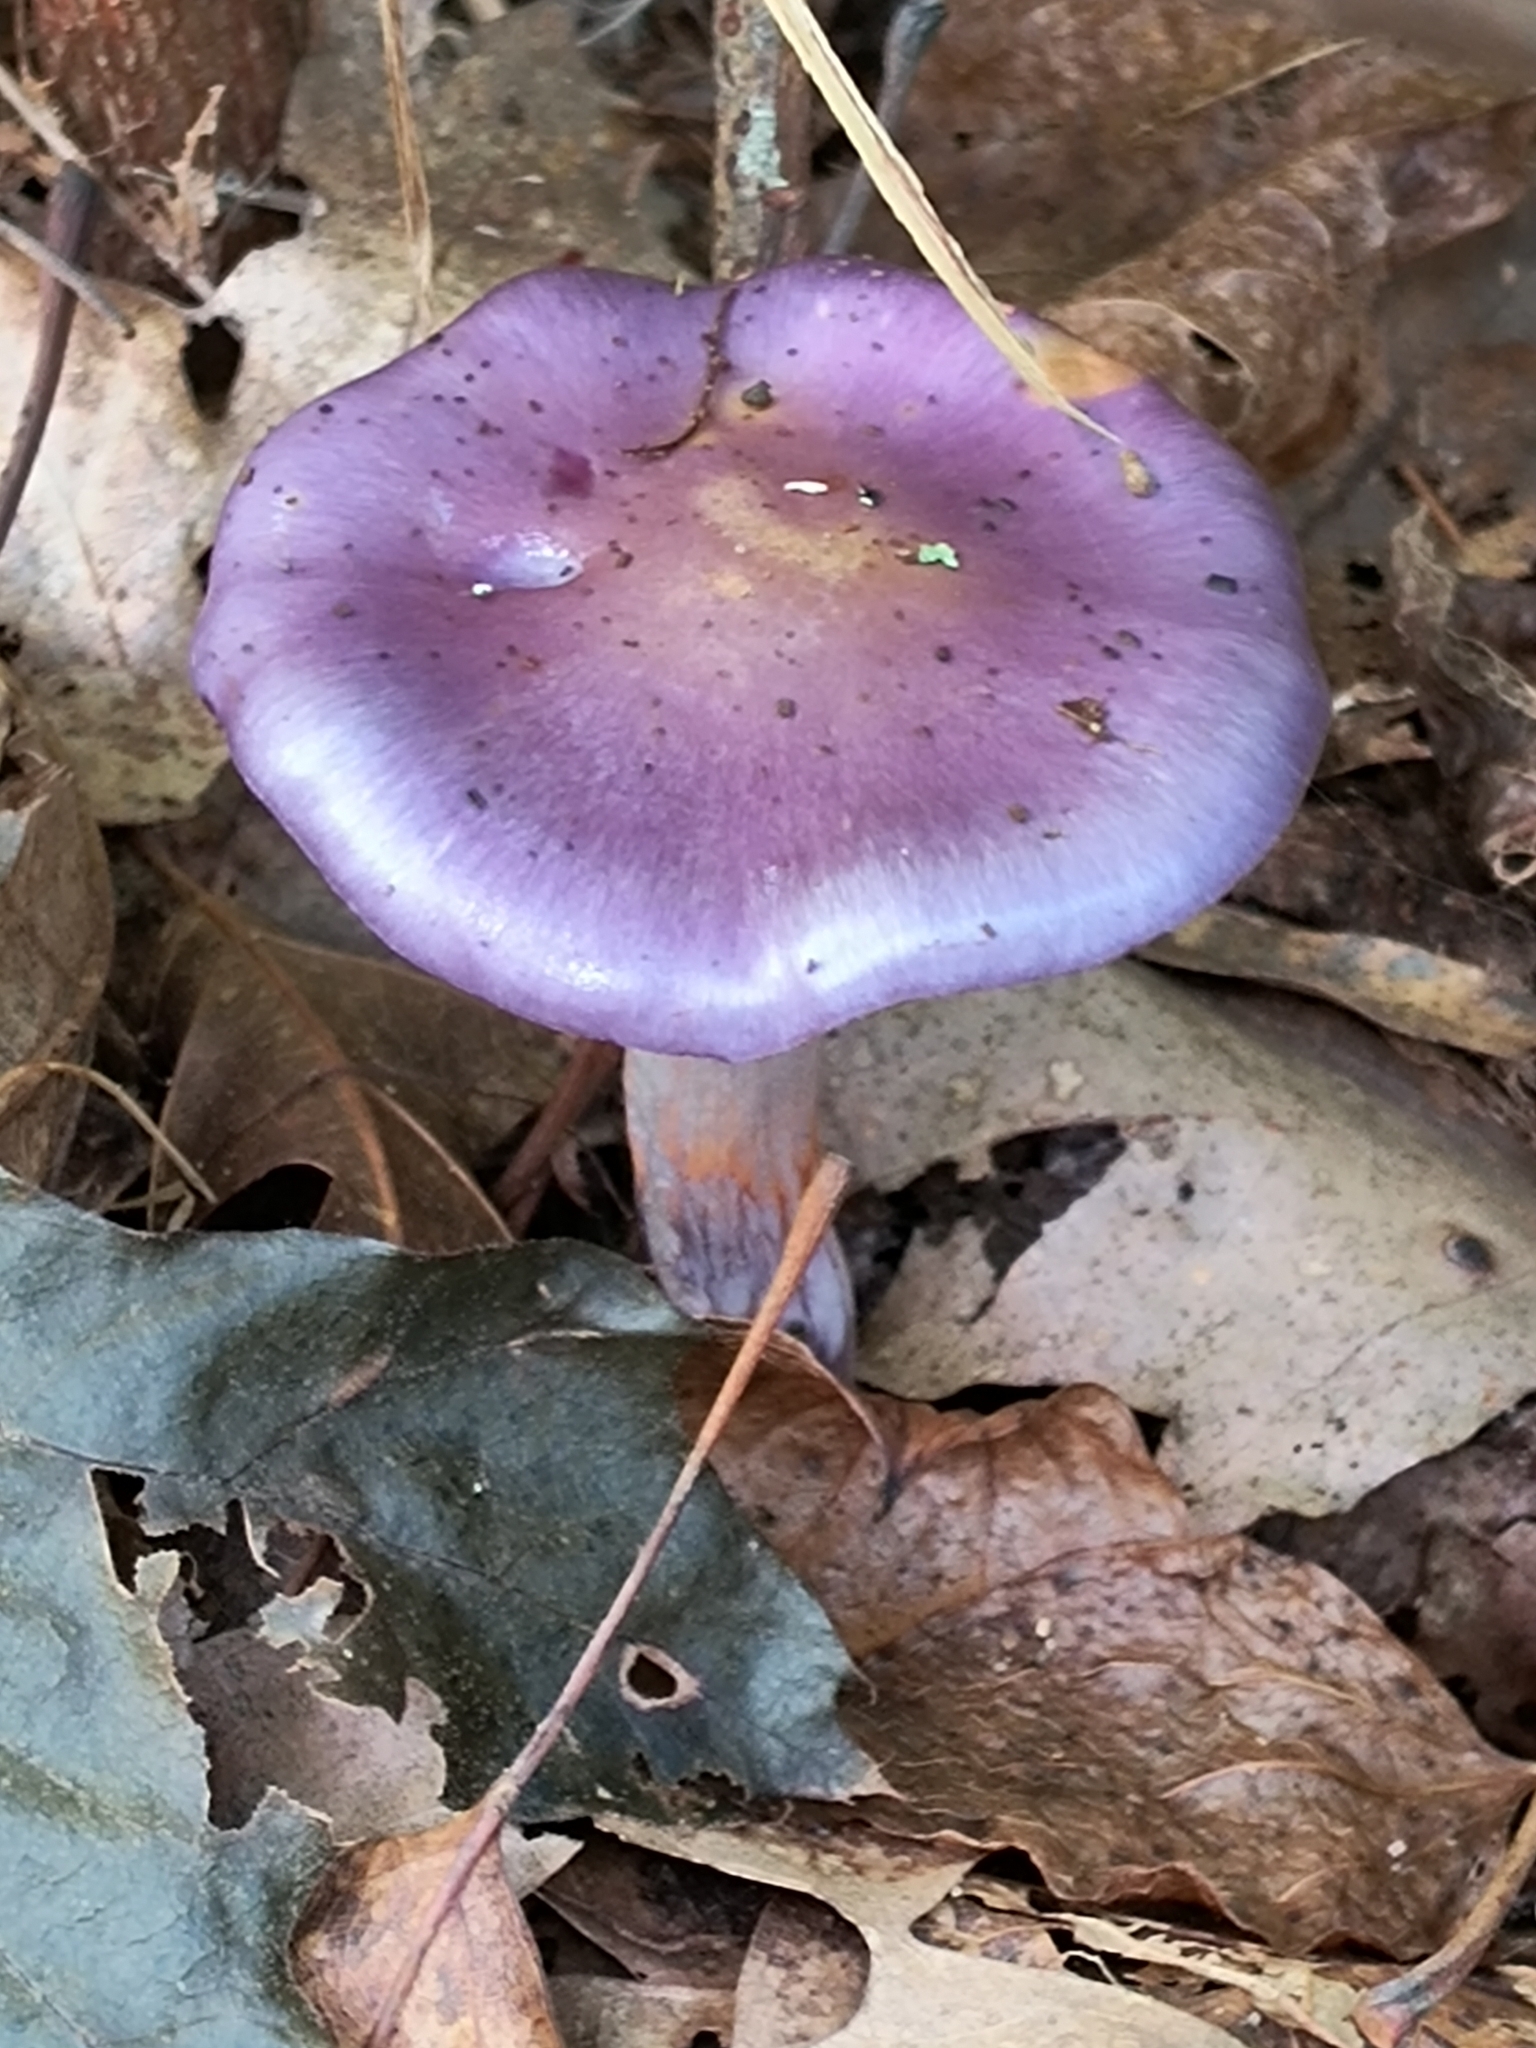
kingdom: Fungi
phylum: Basidiomycota
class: Agaricomycetes
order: Agaricales
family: Cortinariaceae
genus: Cortinarius
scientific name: Cortinarius iodes
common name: Viscid violet cort
